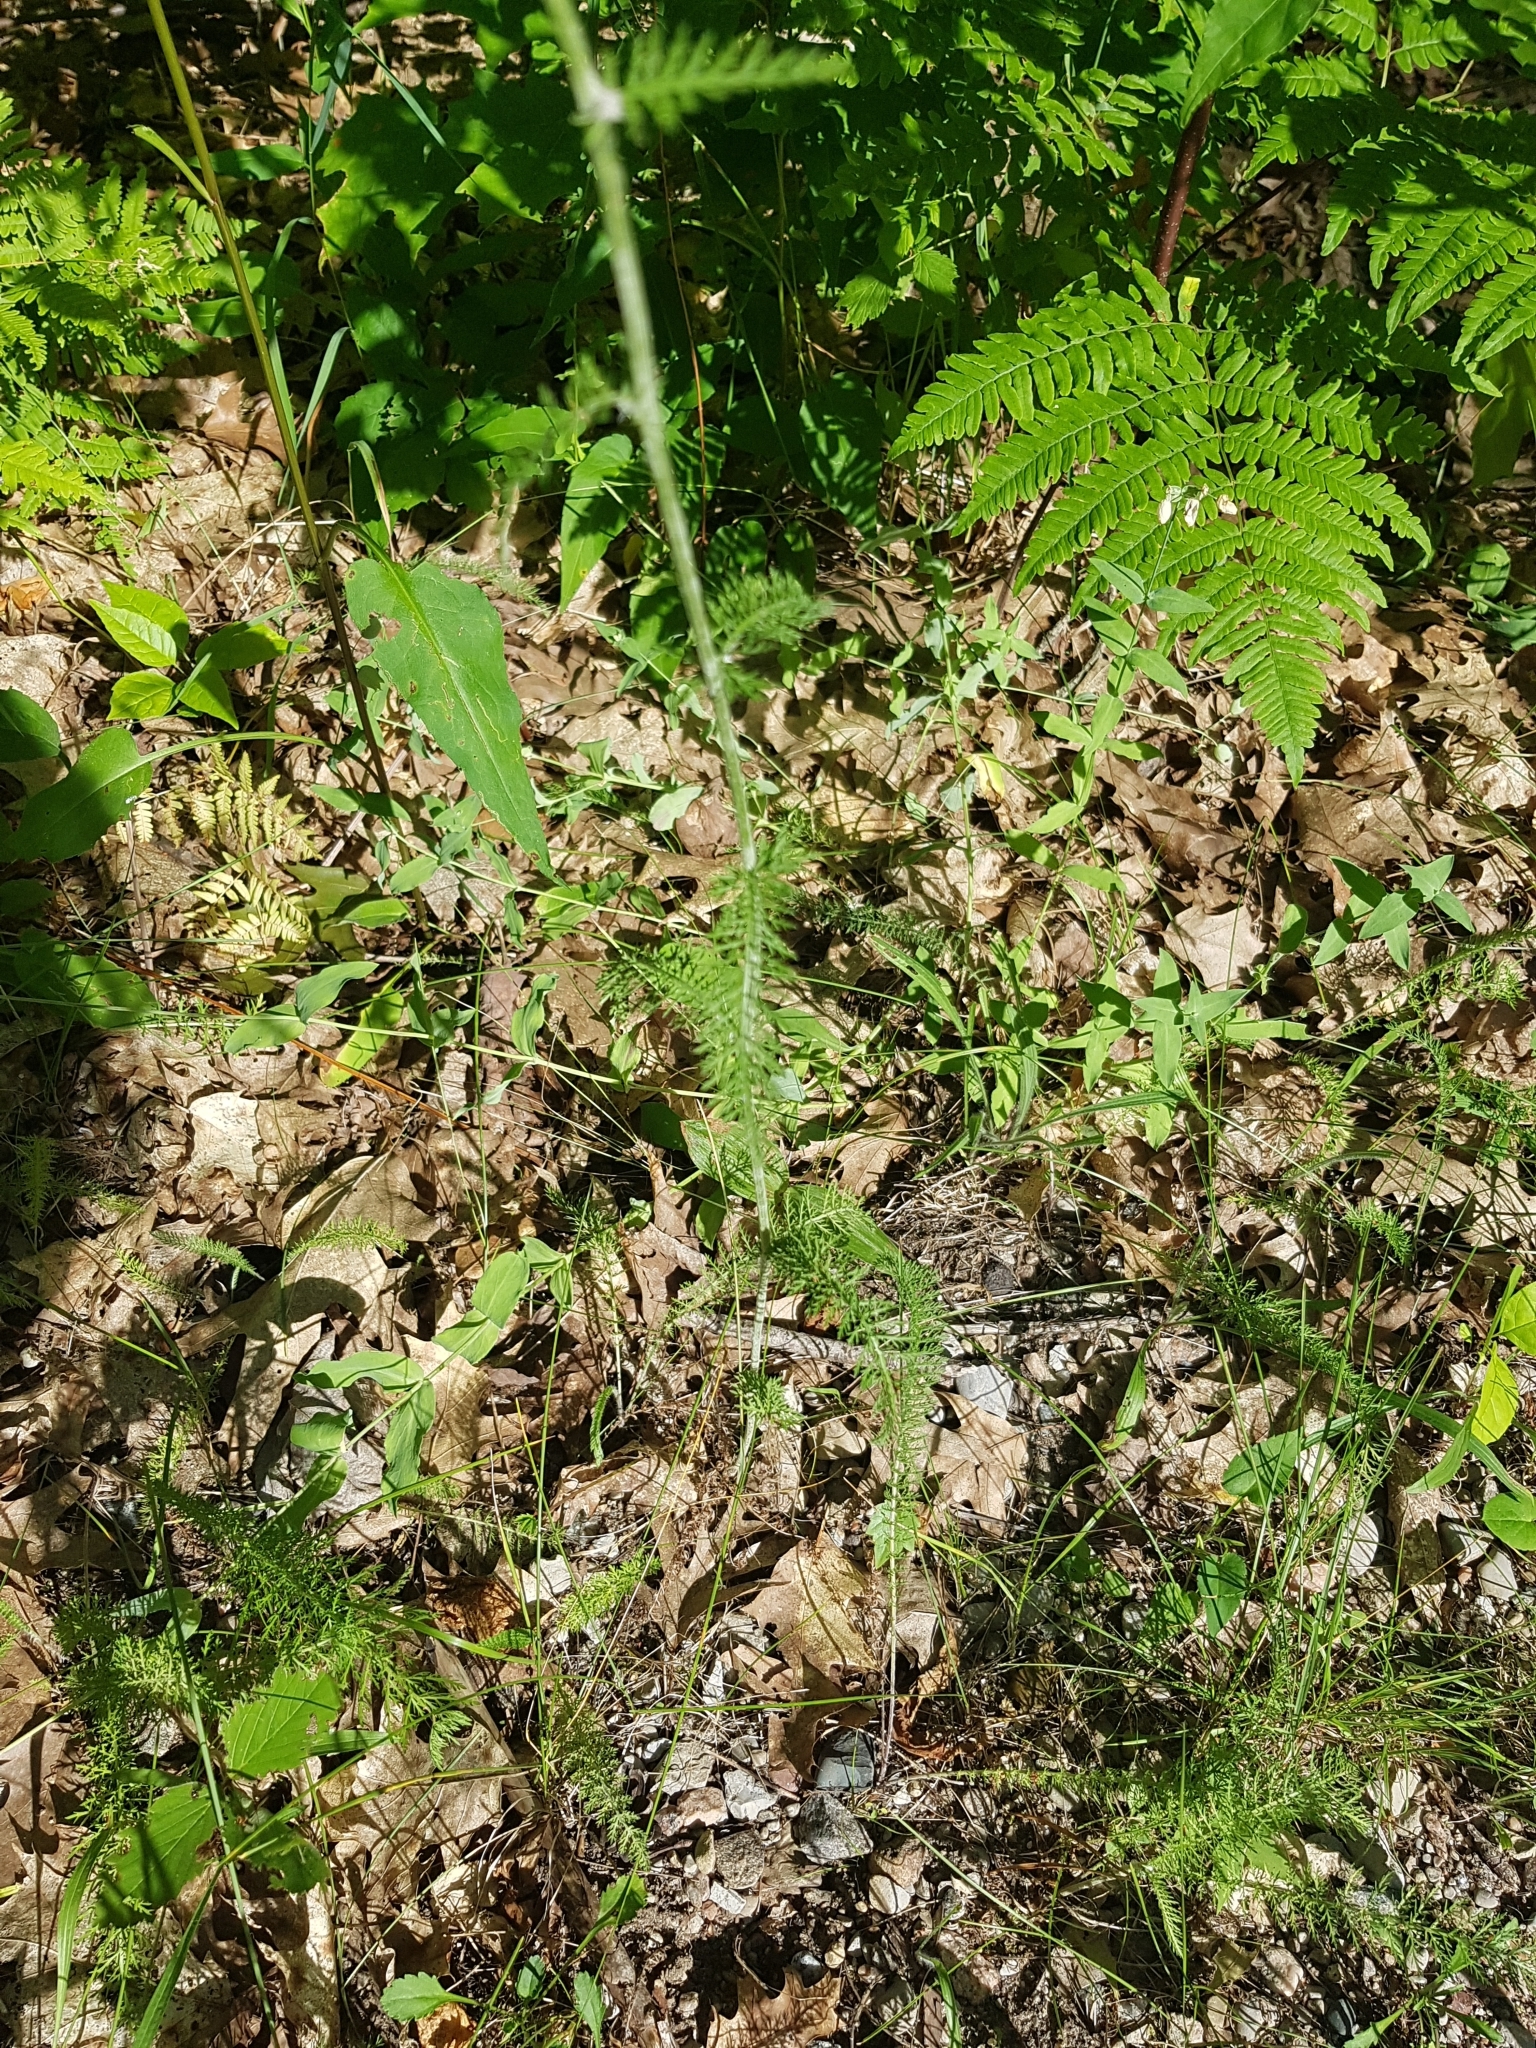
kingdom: Plantae
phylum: Tracheophyta
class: Magnoliopsida
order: Asterales
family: Asteraceae
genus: Achillea
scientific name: Achillea millefolium
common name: Yarrow
